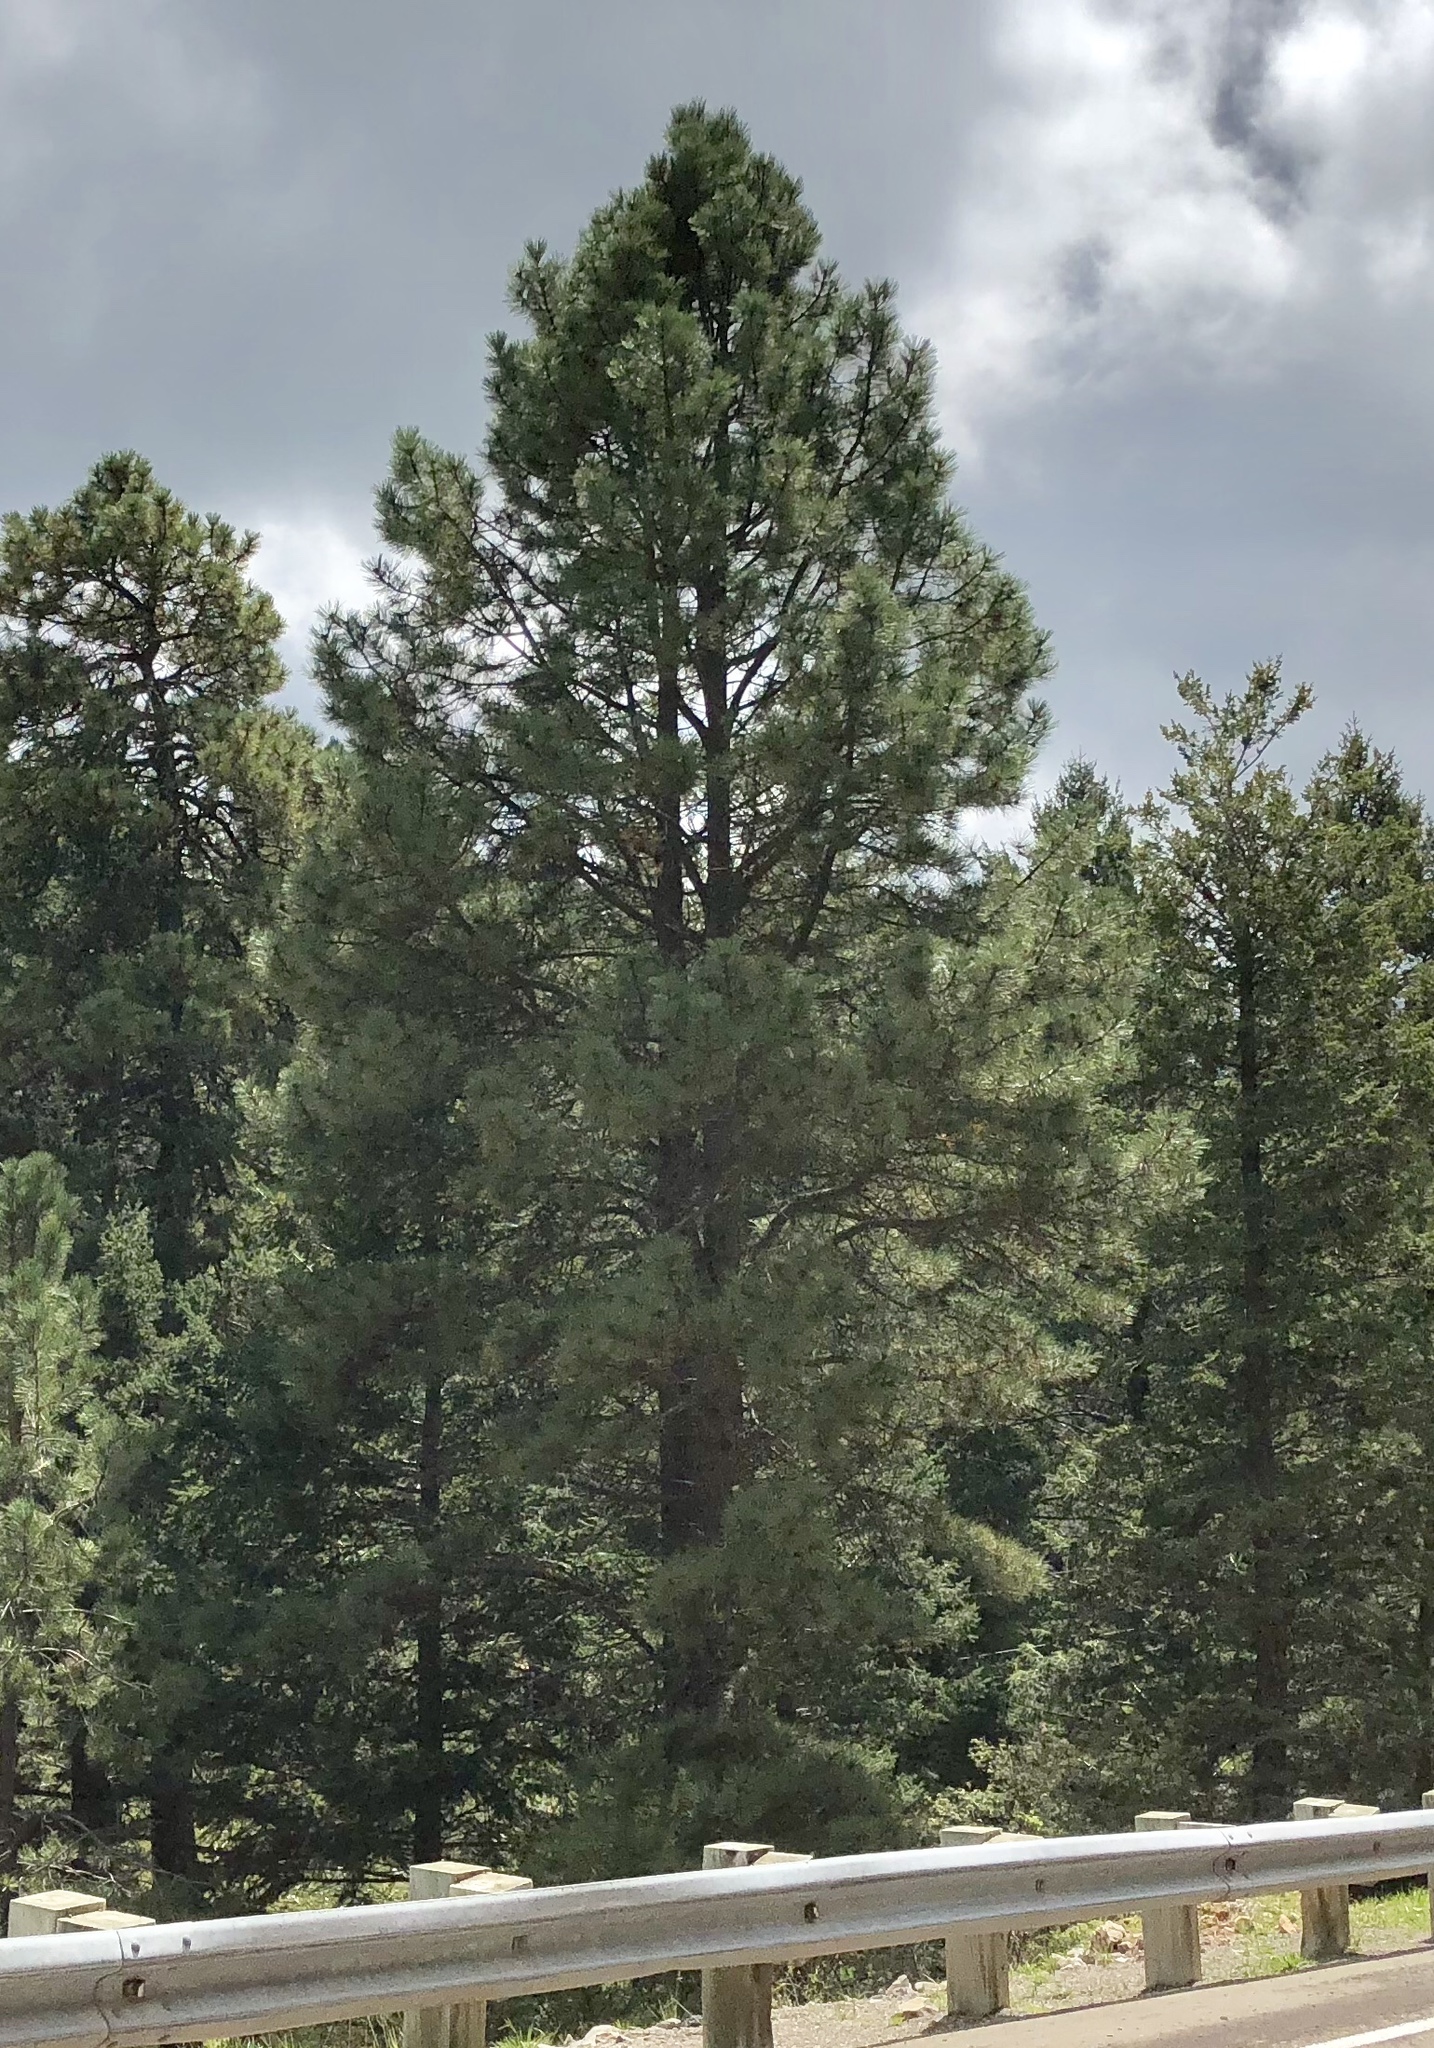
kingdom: Plantae
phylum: Tracheophyta
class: Pinopsida
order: Pinales
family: Pinaceae
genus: Pinus
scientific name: Pinus ponderosa
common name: Western yellow-pine
